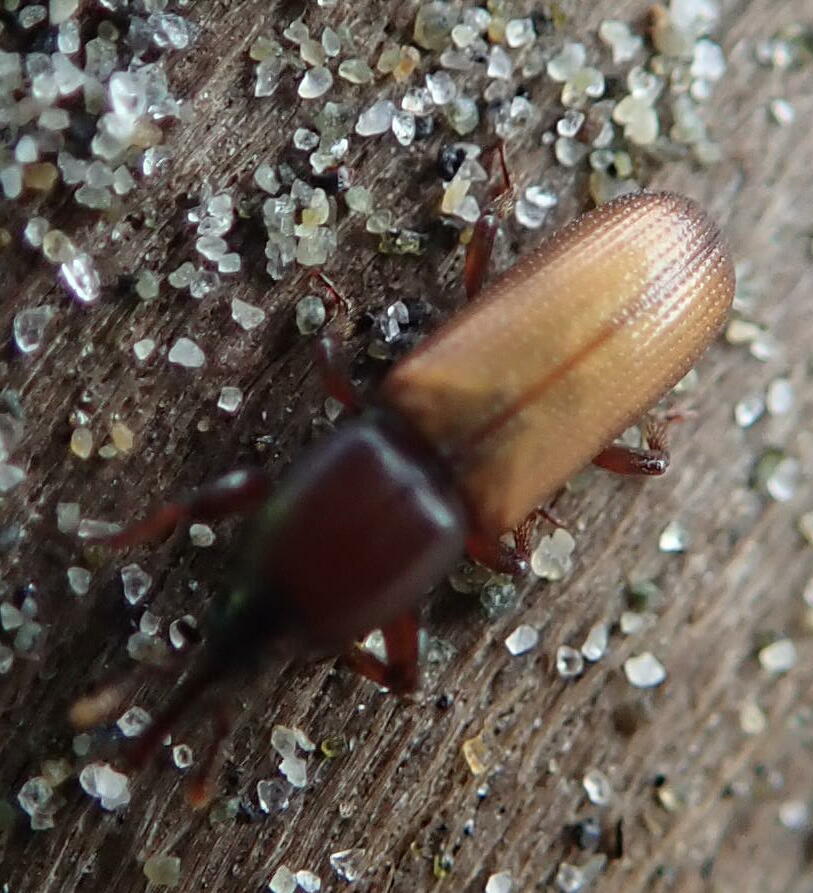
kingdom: Animalia
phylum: Arthropoda
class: Insecta
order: Coleoptera
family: Curculionidae
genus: Mesites
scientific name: Mesites pallidipennis
